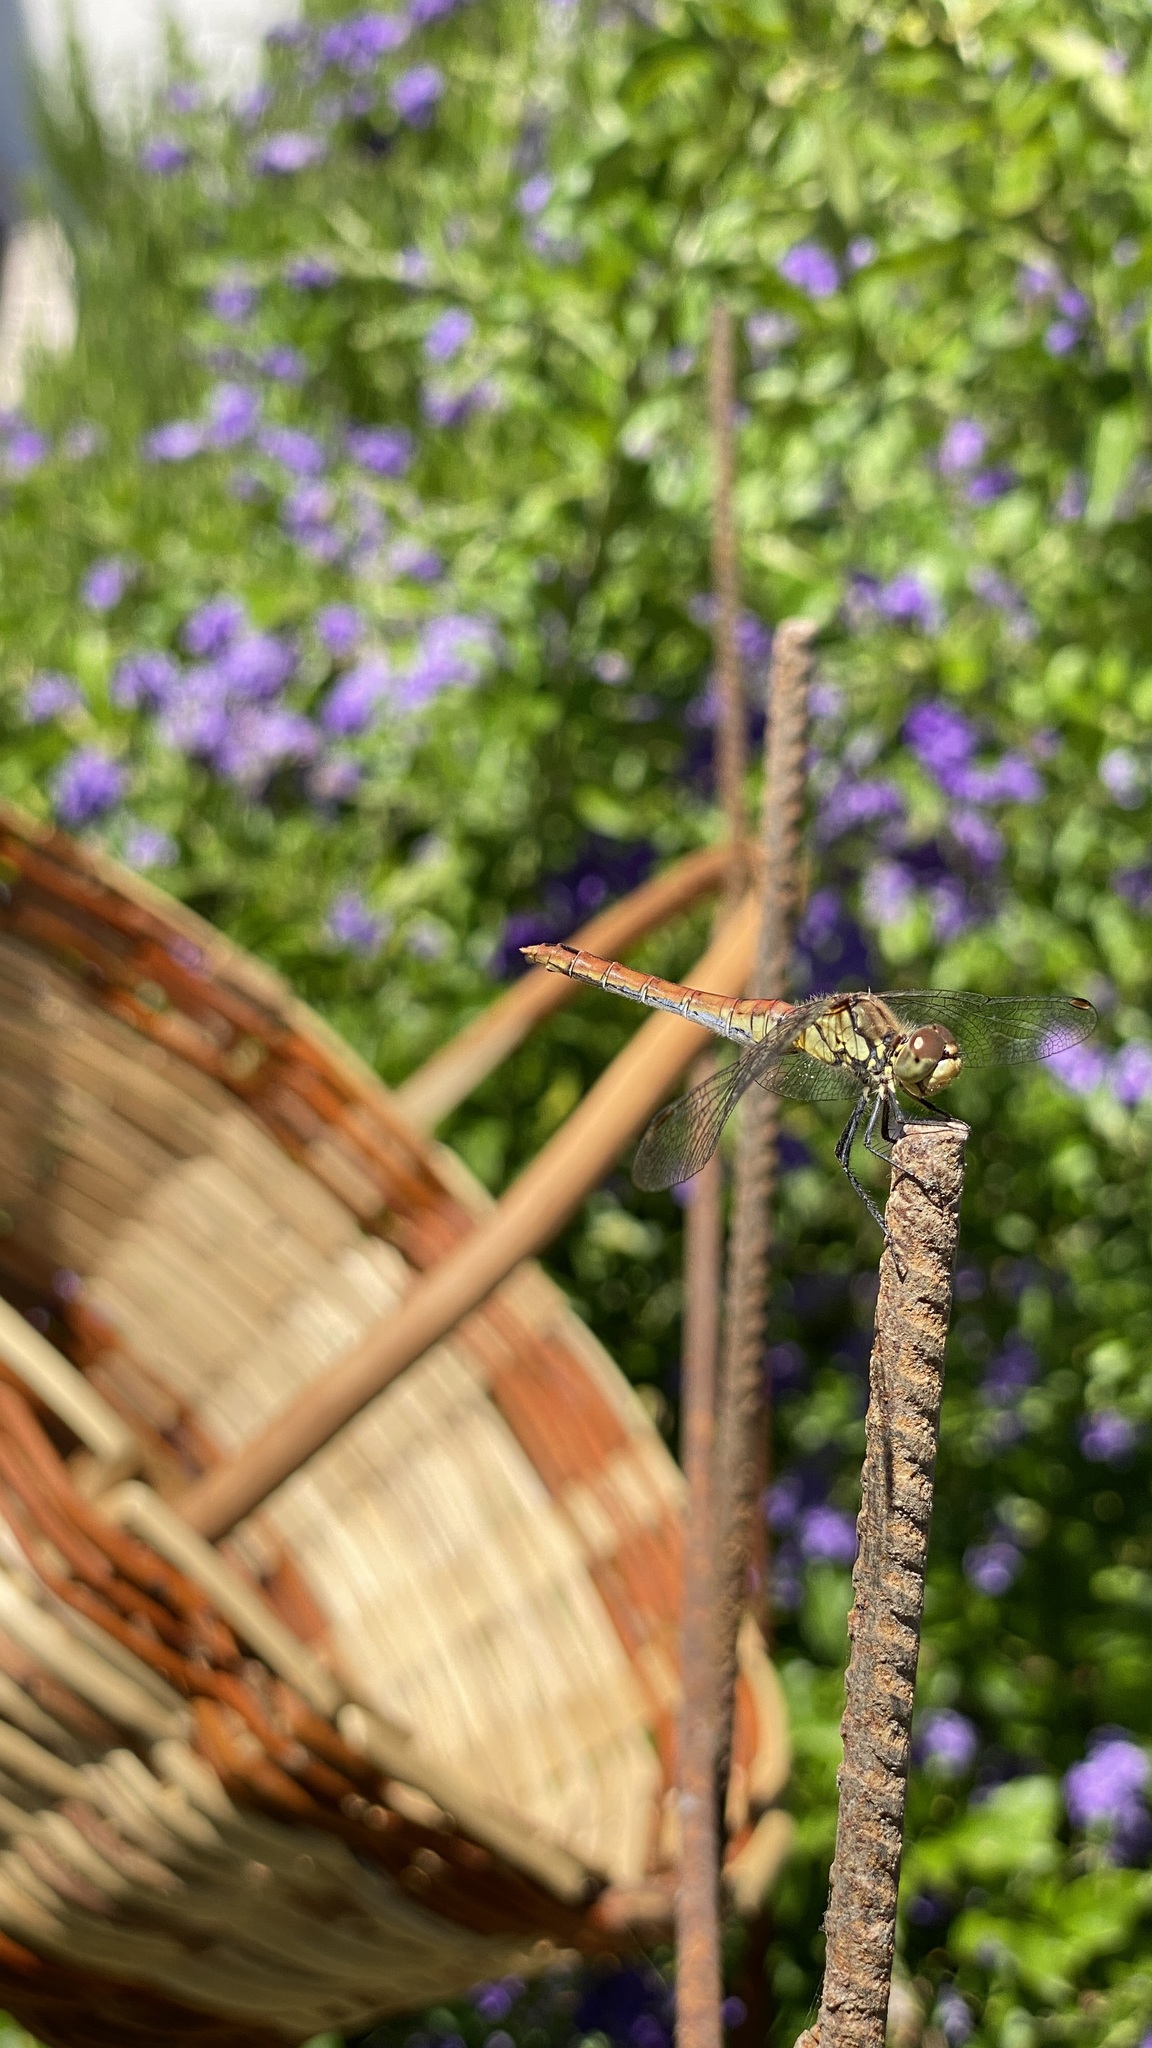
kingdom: Animalia
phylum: Arthropoda
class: Insecta
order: Odonata
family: Libellulidae
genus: Sympetrum
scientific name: Sympetrum sanguineum
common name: Ruddy darter
